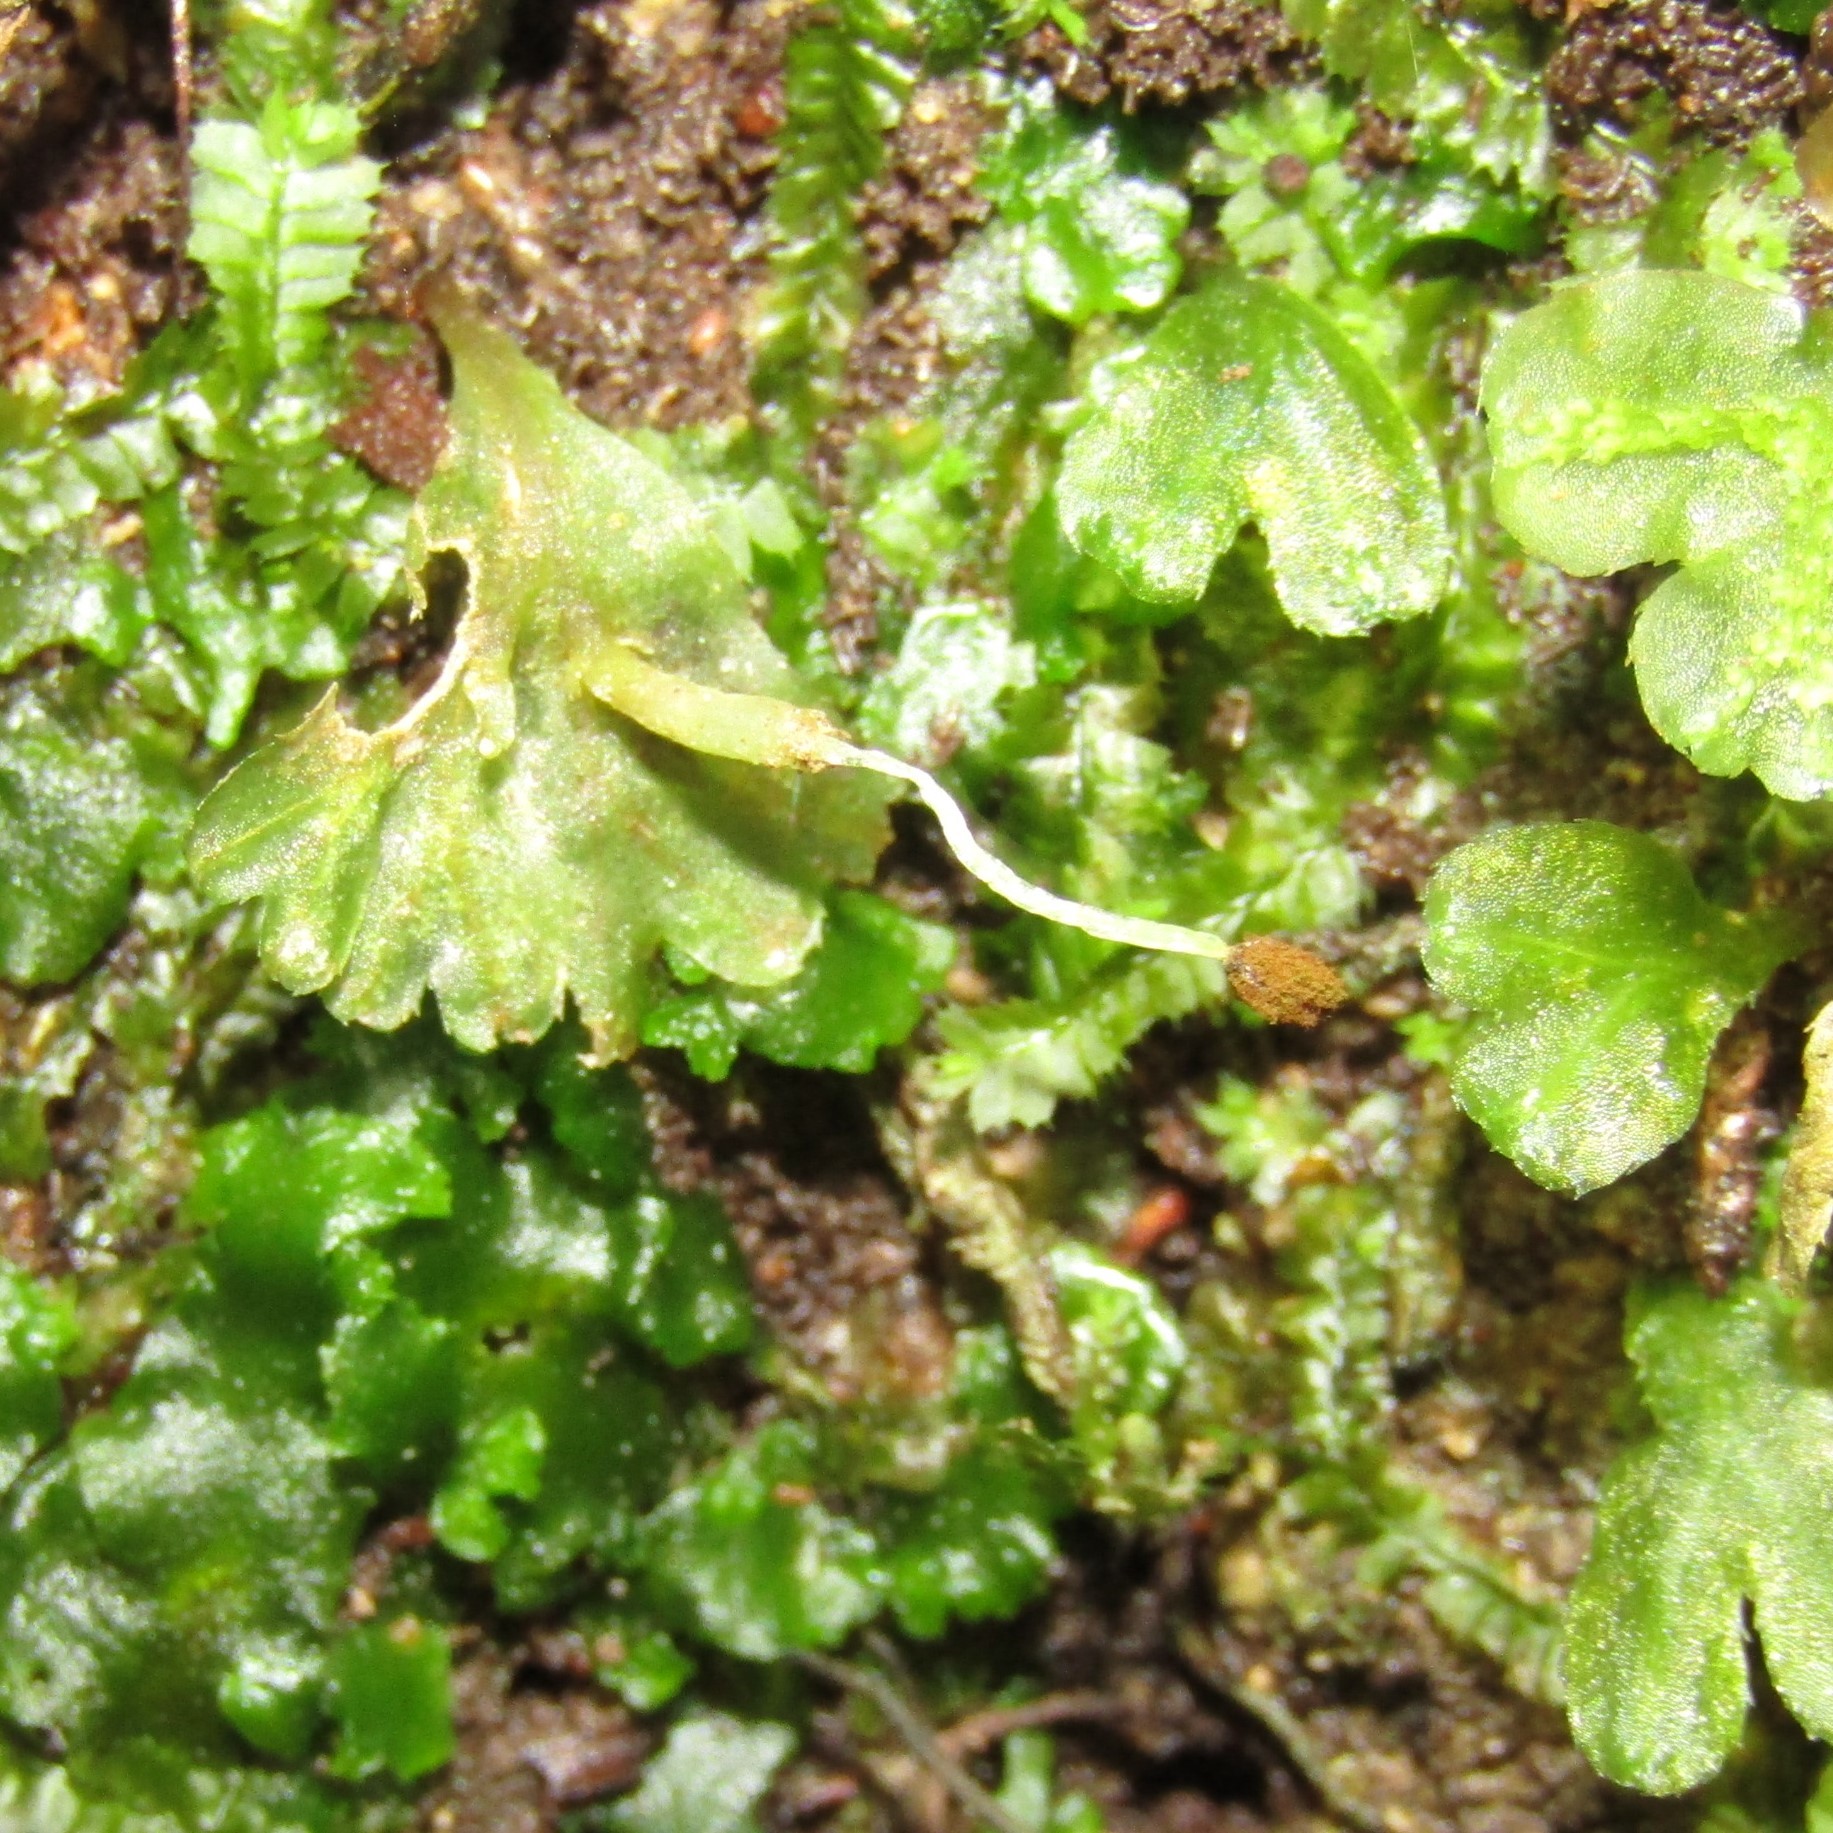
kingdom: Plantae
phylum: Marchantiophyta
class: Jungermanniopsida
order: Pallaviciniales
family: Pallaviciniaceae
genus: Symphyogyna
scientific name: Symphyogyna hymenophyllum
